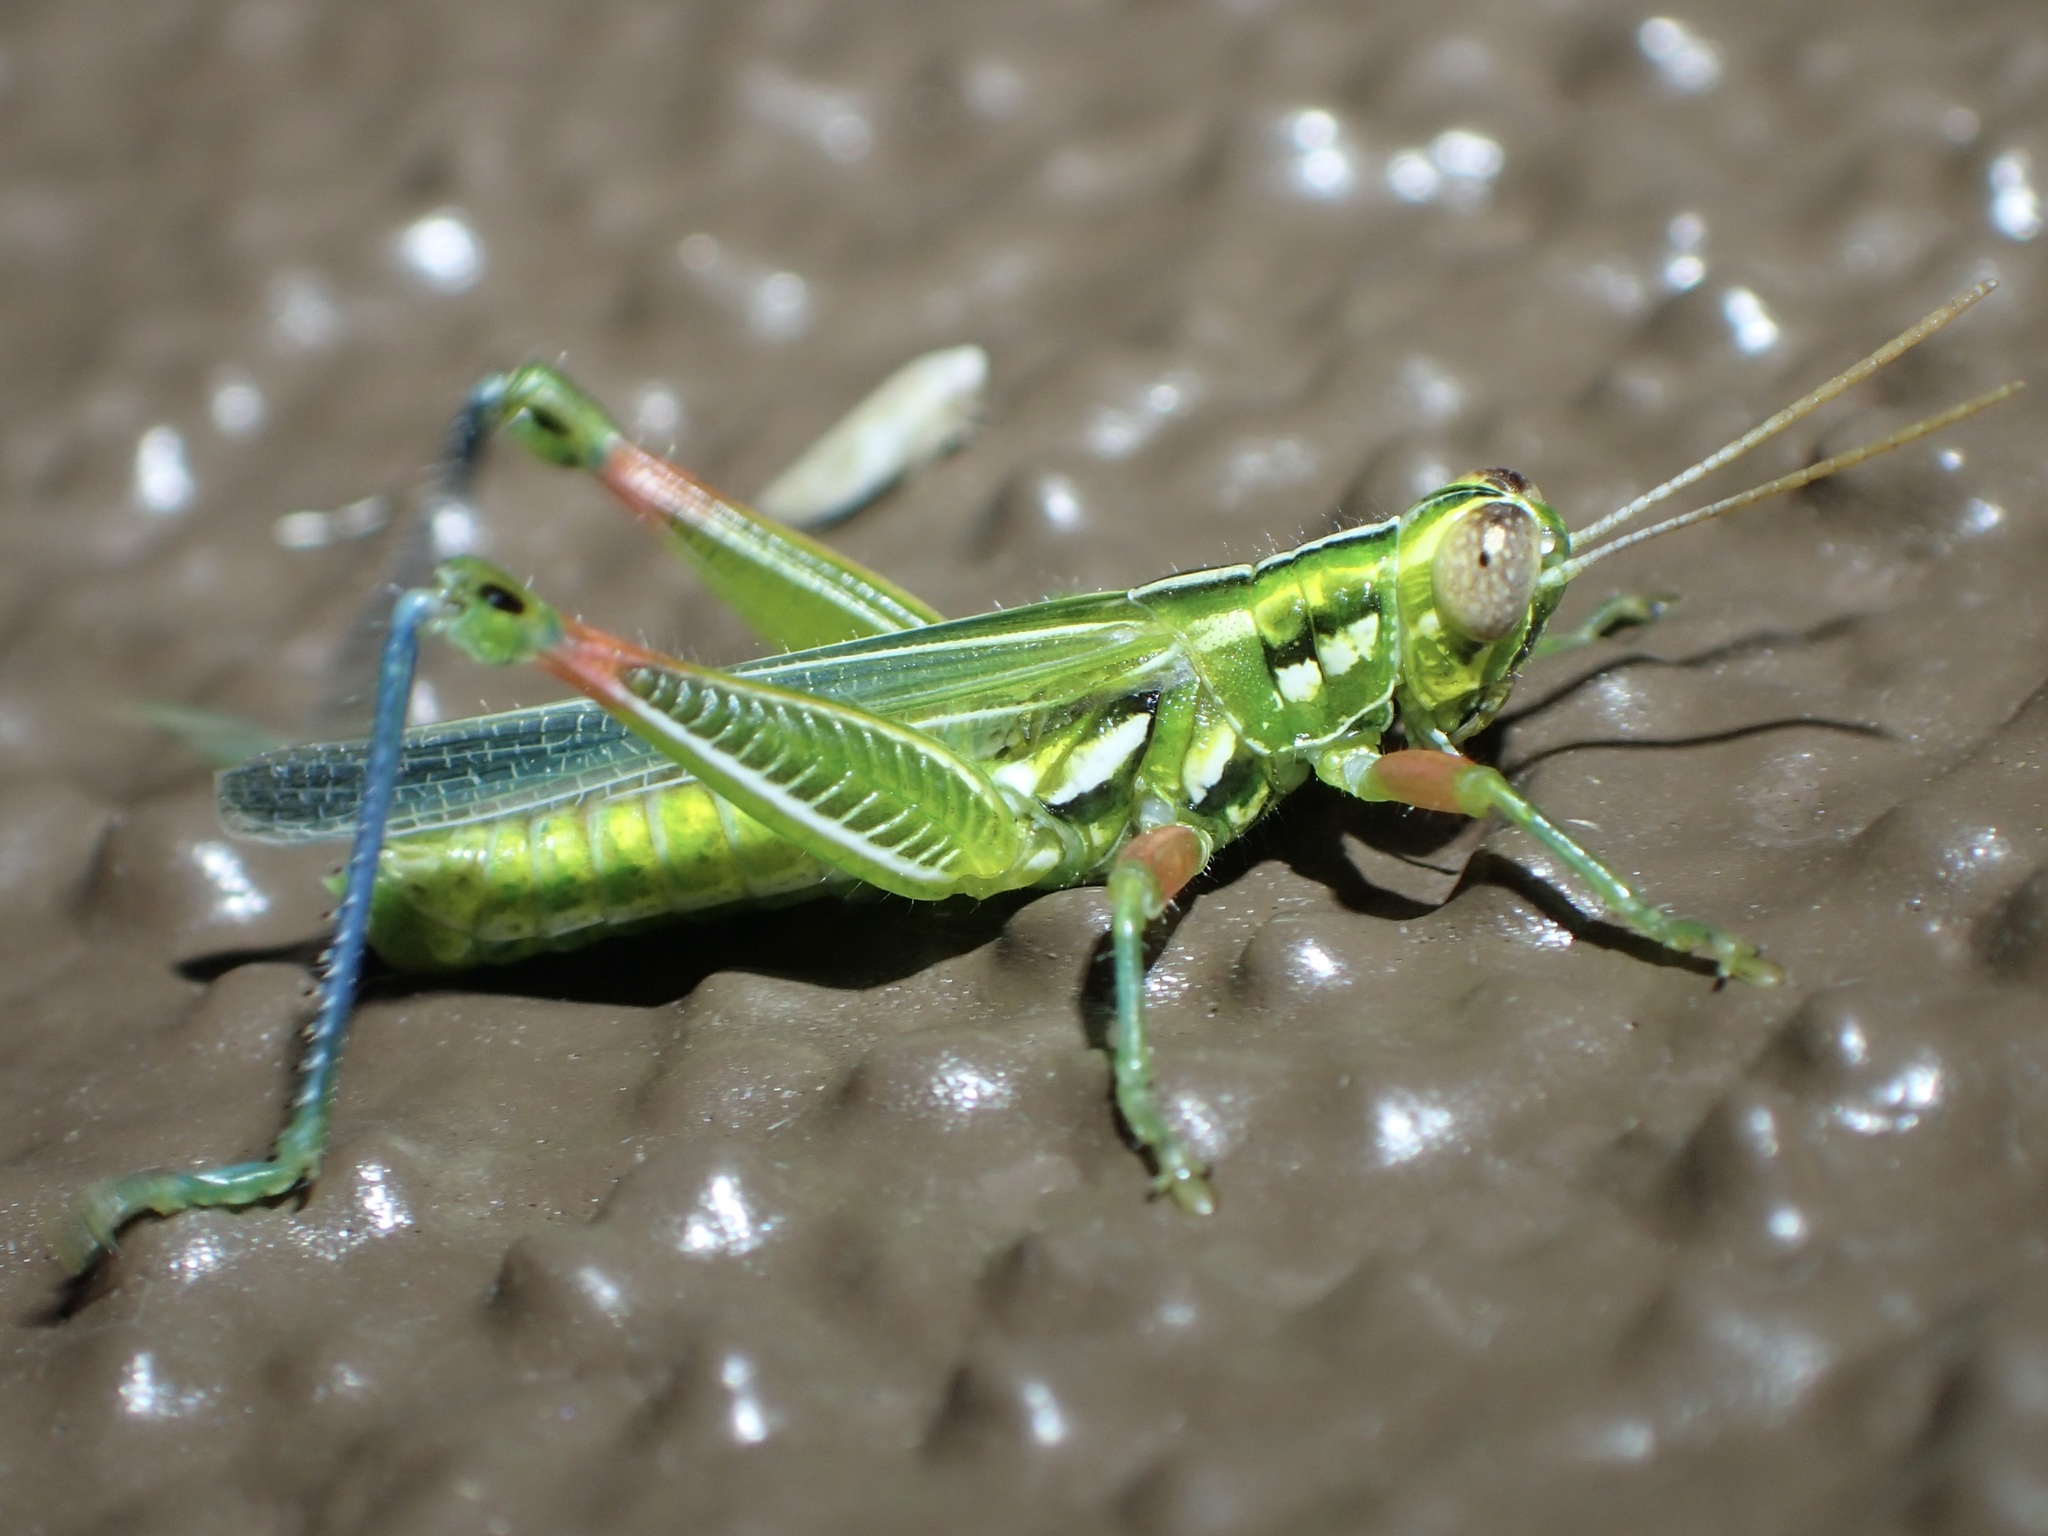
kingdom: Animalia
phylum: Arthropoda
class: Insecta
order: Orthoptera
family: Acrididae
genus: Hesperotettix
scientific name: Hesperotettix viridis
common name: Meadow purple-striped grasshopper
